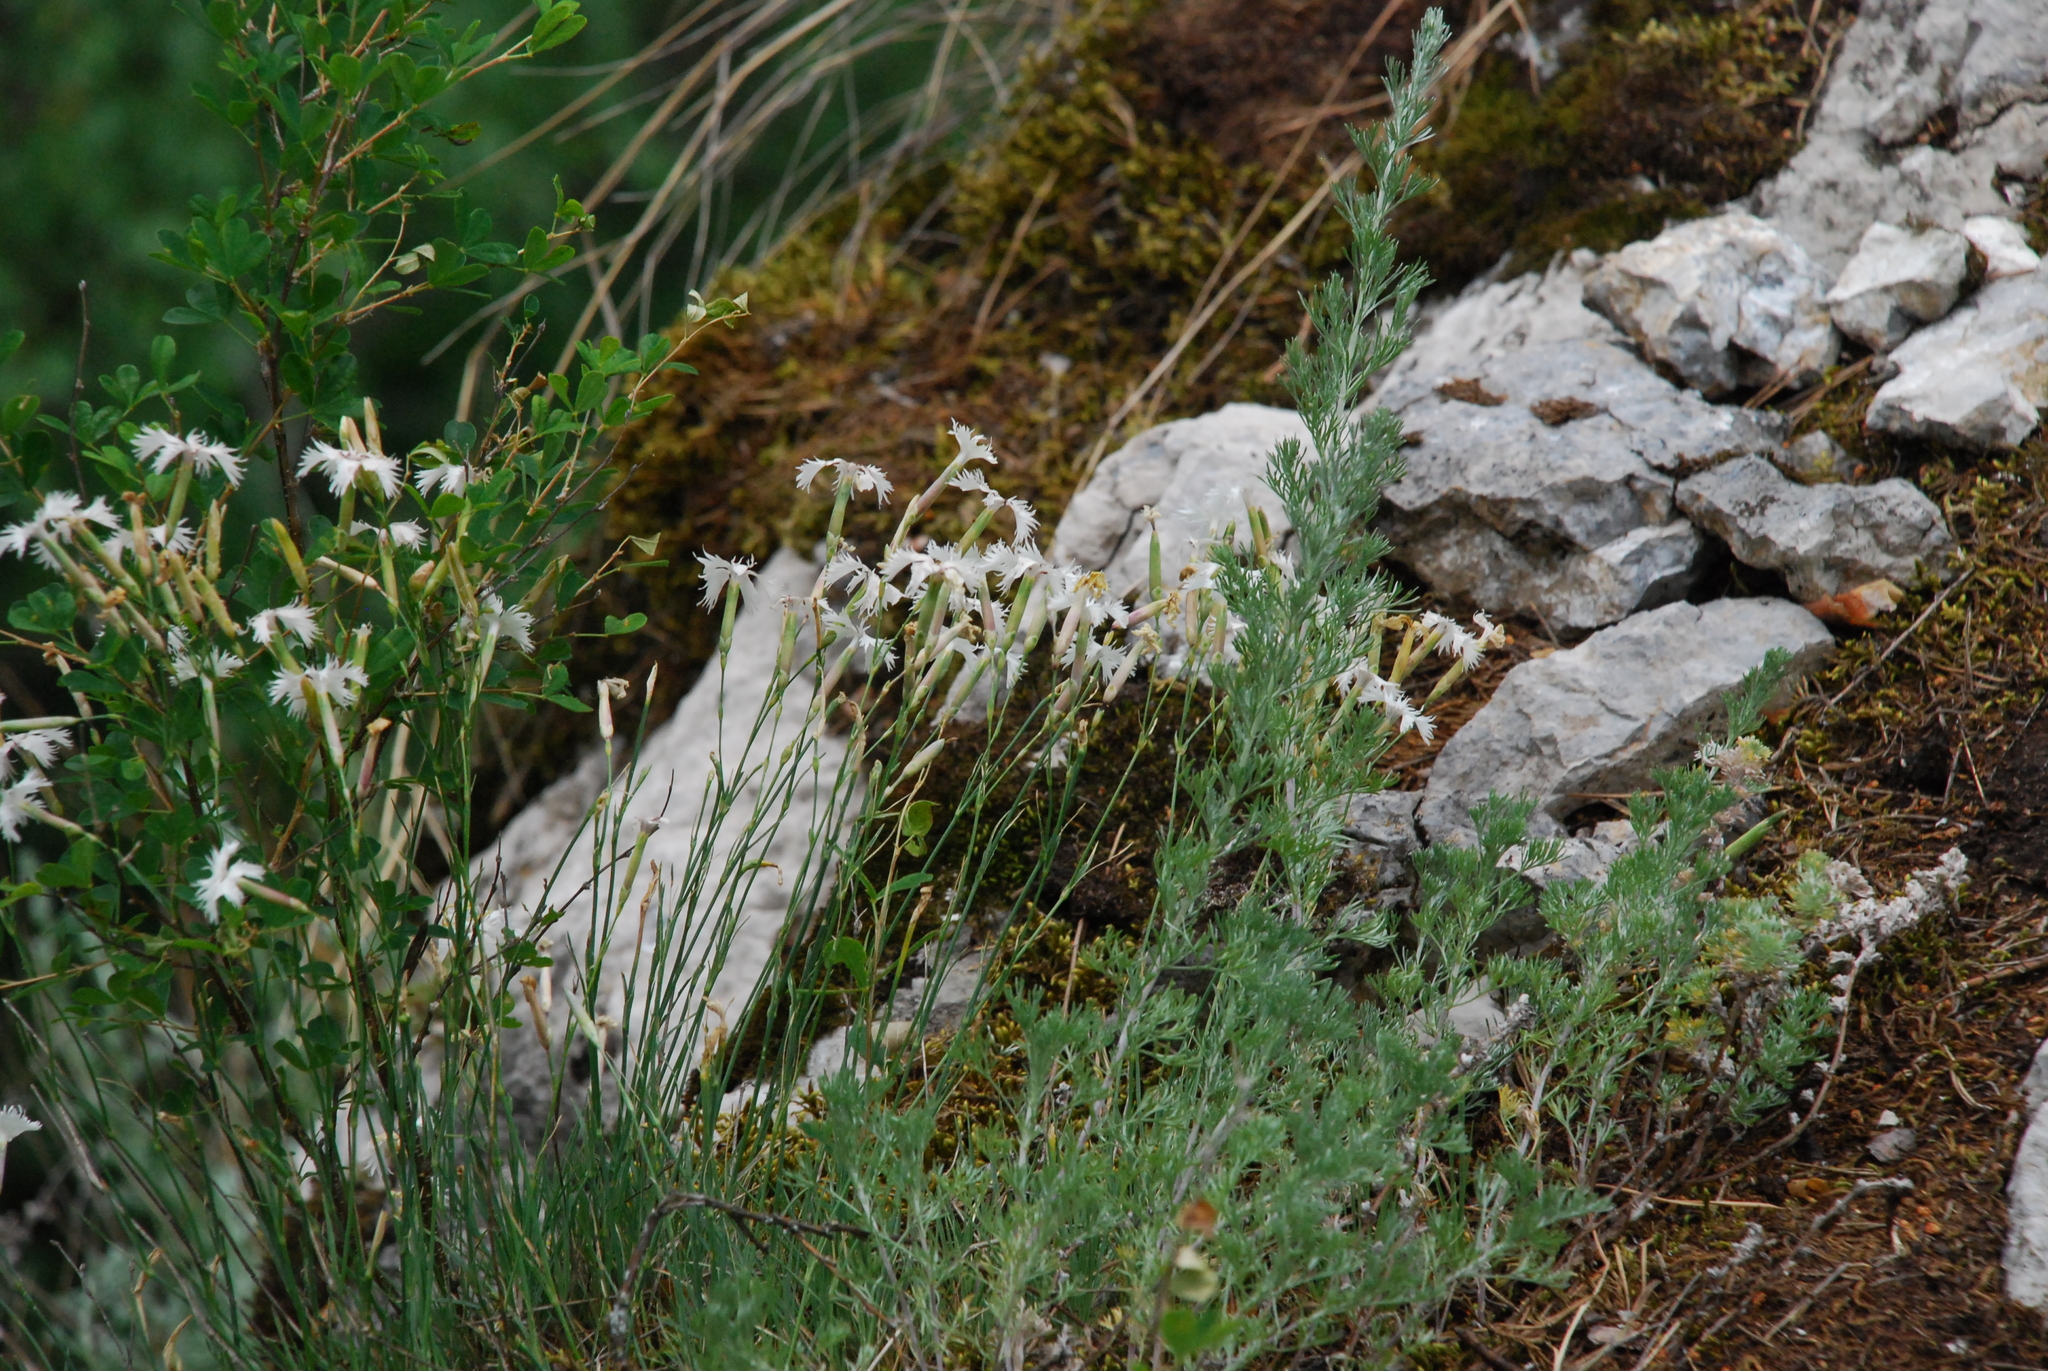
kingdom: Plantae
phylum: Tracheophyta
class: Magnoliopsida
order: Caryophyllales
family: Caryophyllaceae
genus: Dianthus
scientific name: Dianthus acicularis
